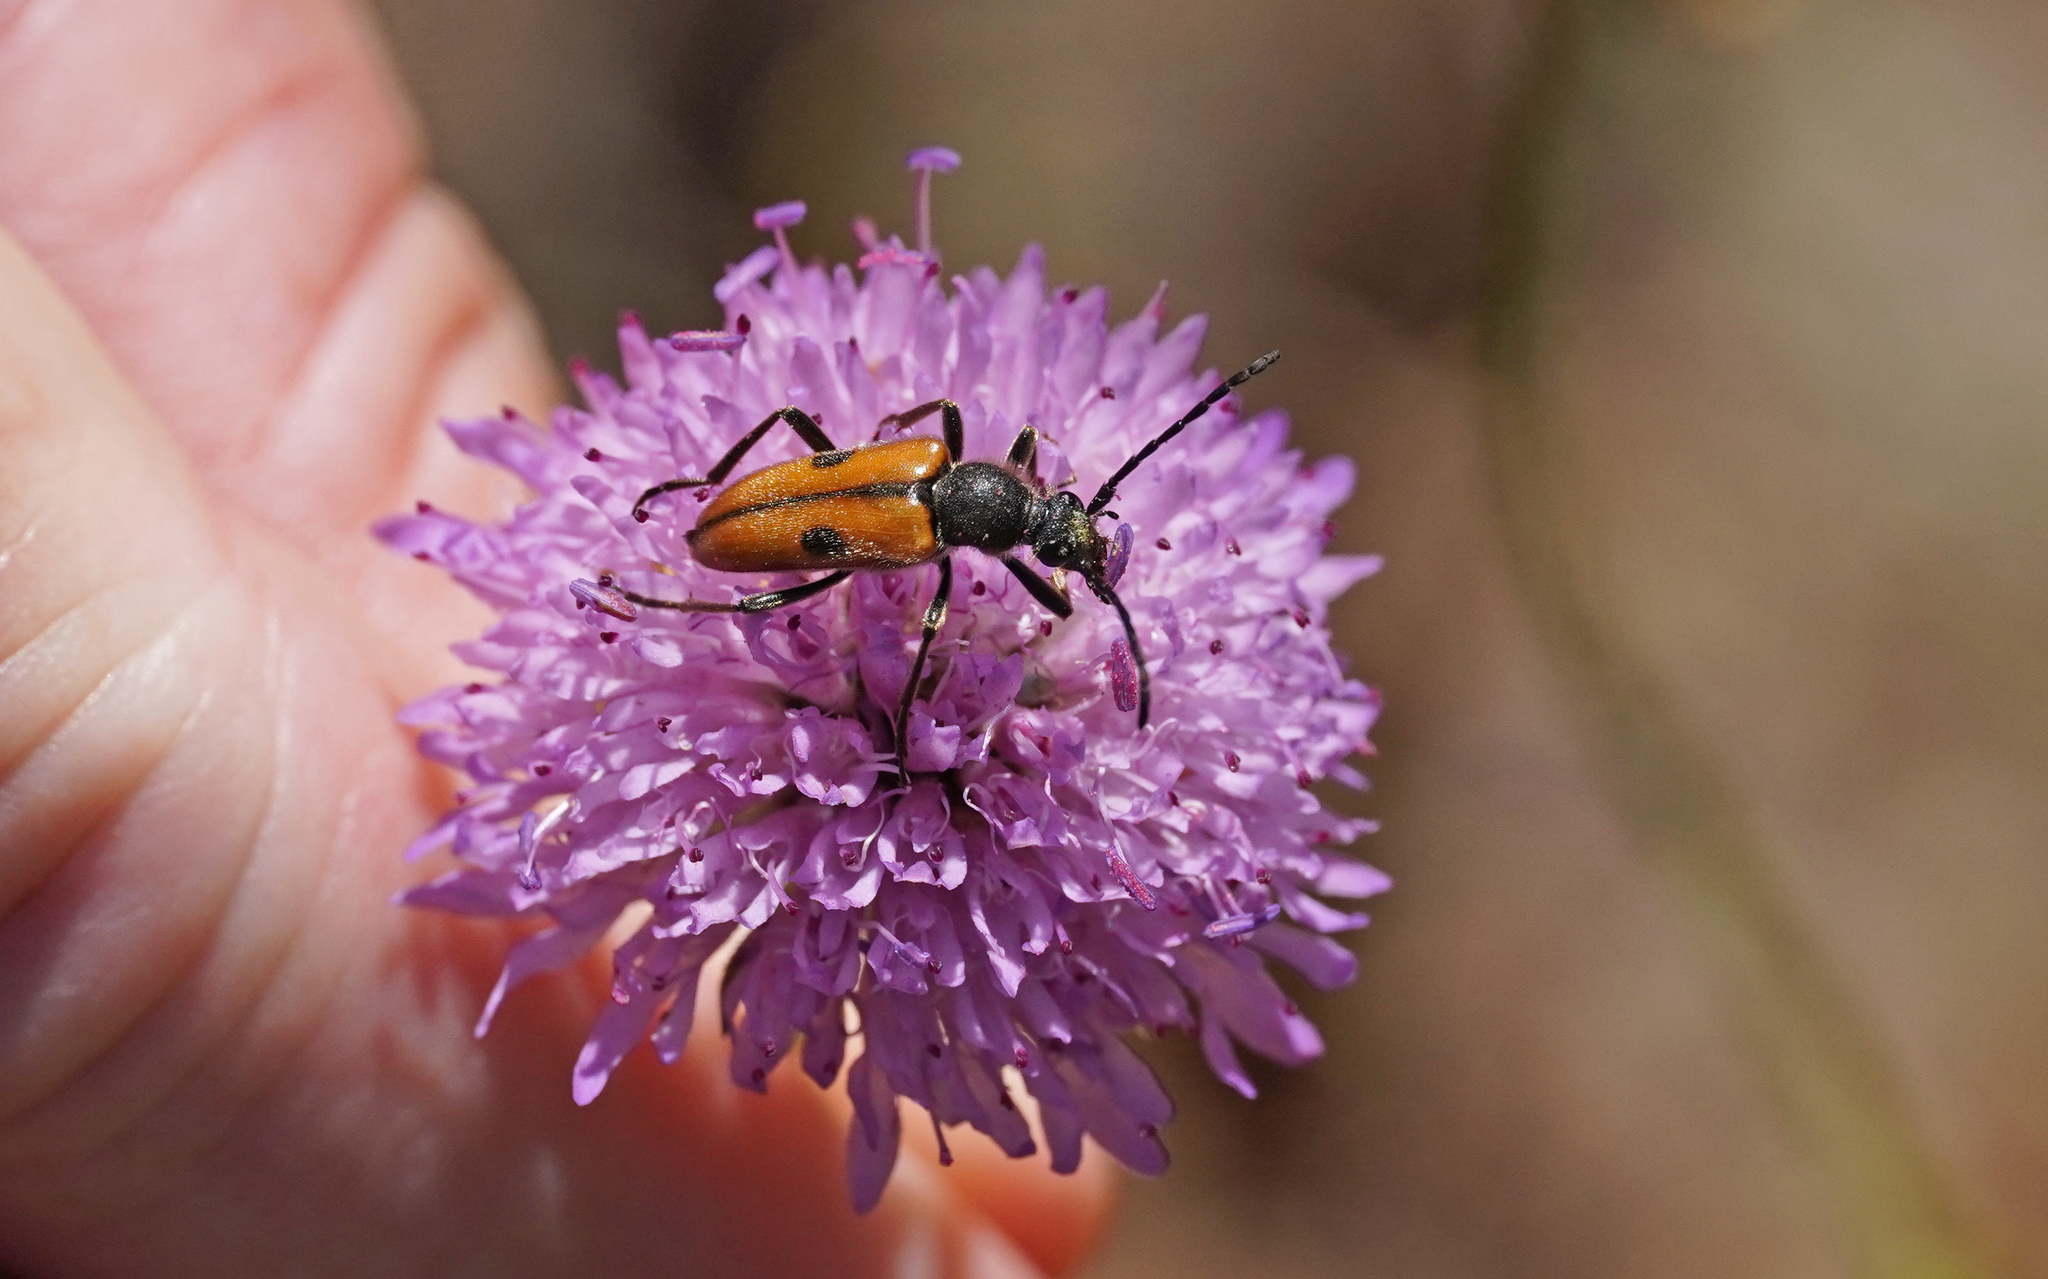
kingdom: Animalia
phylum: Arthropoda
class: Insecta
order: Coleoptera
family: Cerambycidae
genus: Vadonia
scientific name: Vadonia unipunctata
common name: Long-horned beetle
